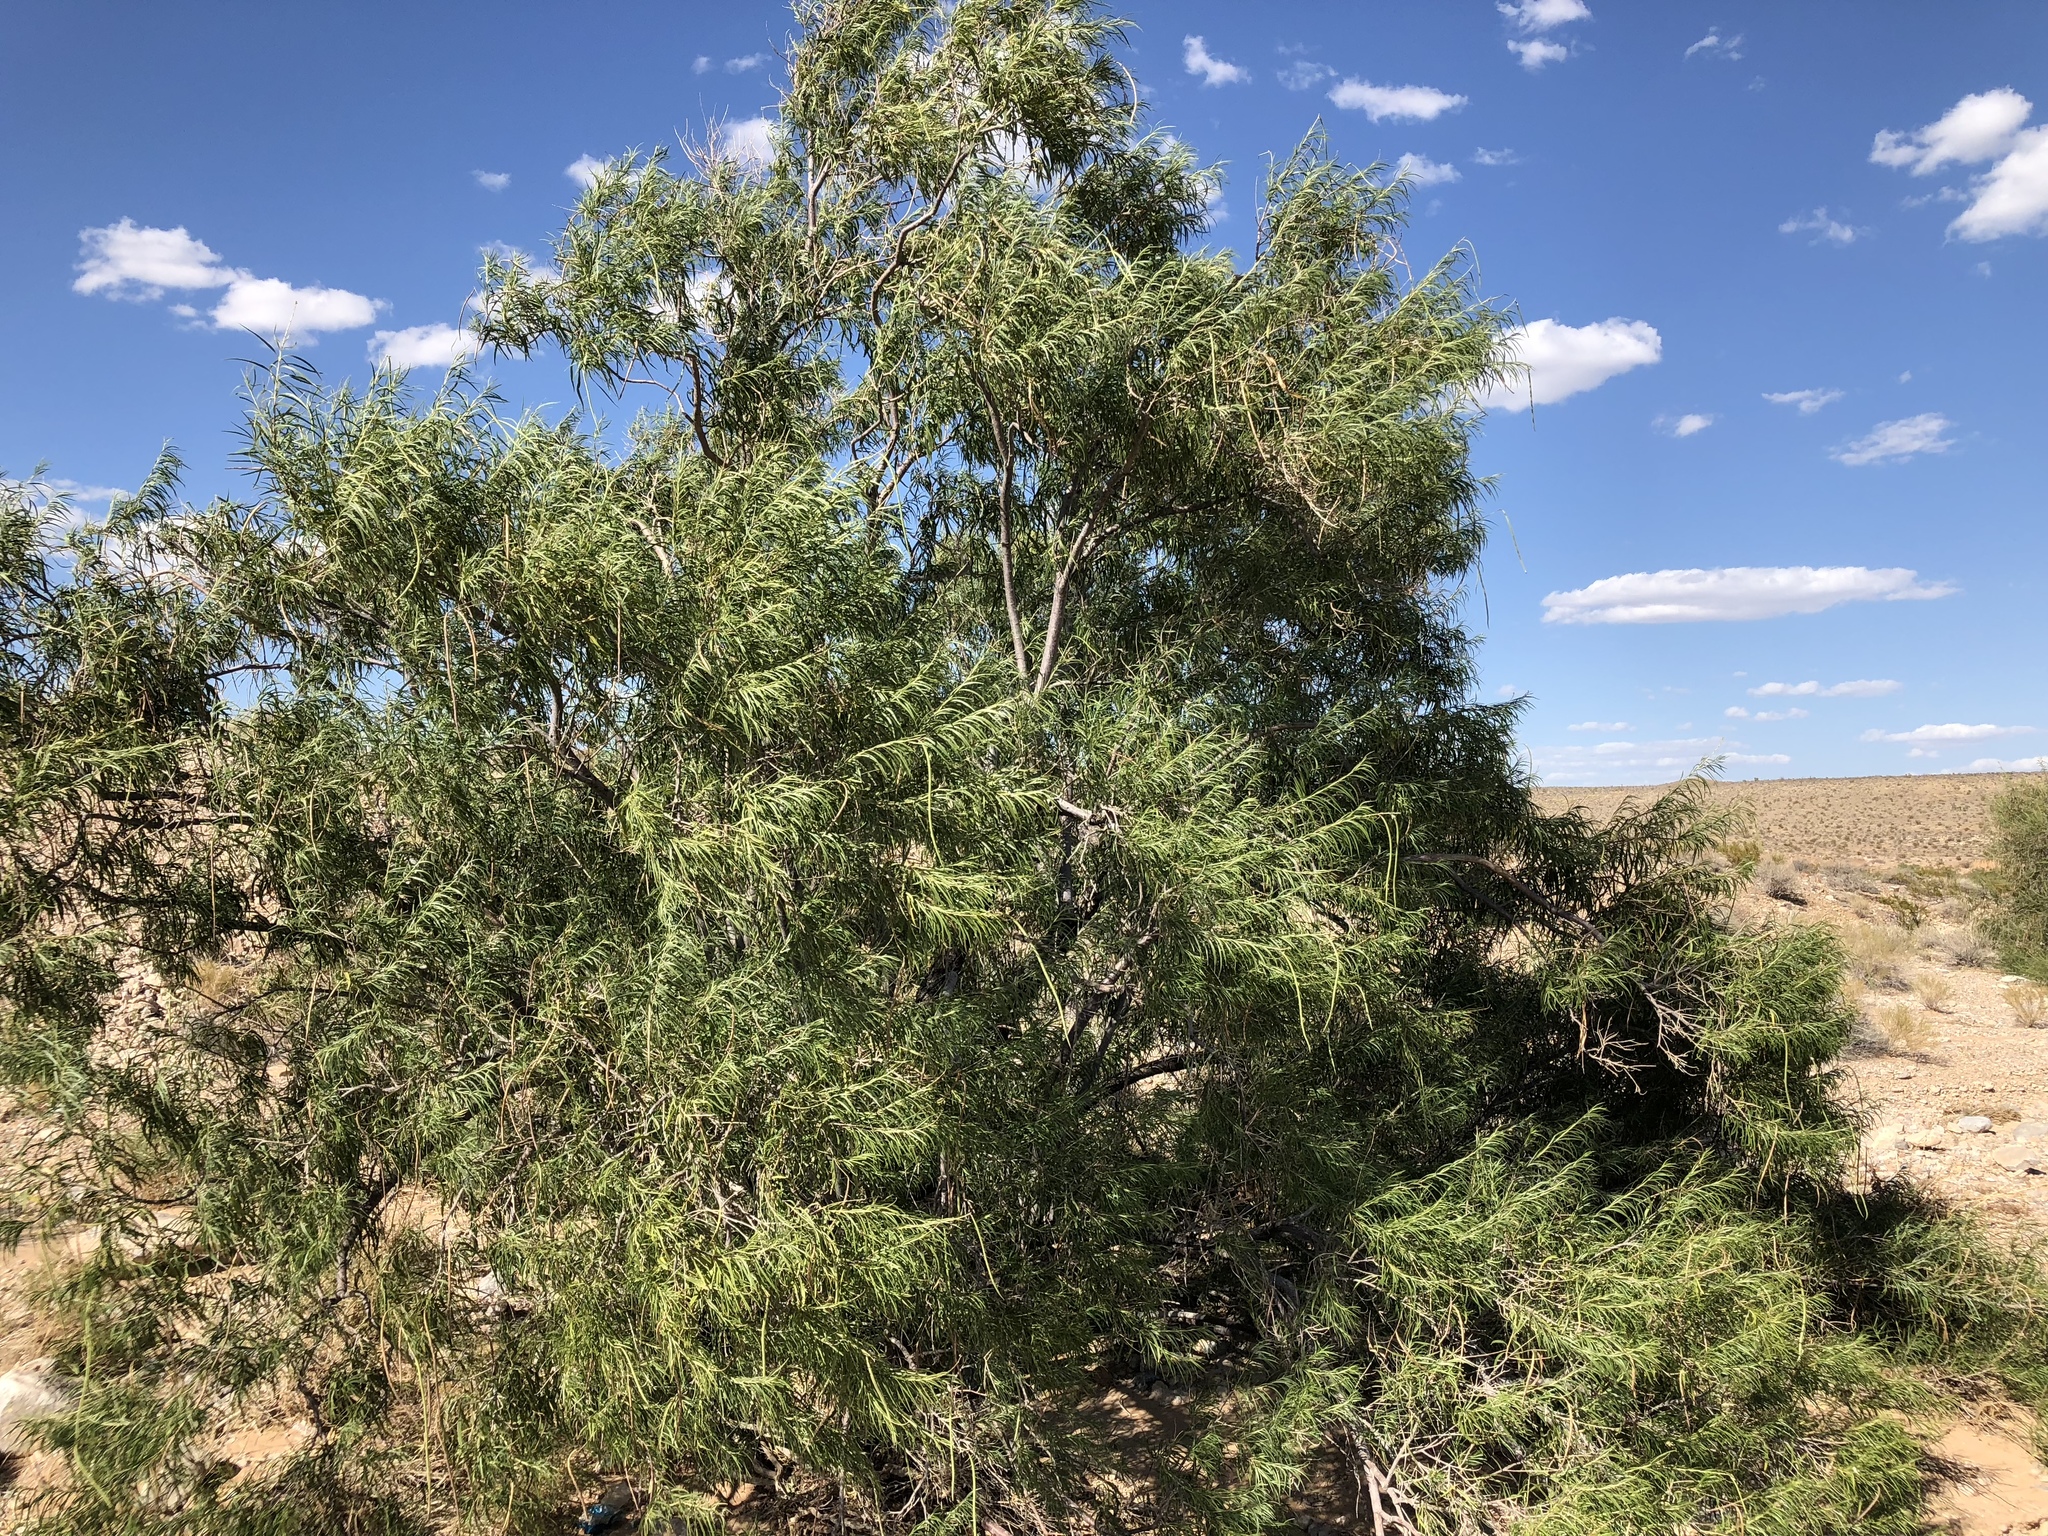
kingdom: Plantae
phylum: Tracheophyta
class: Magnoliopsida
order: Lamiales
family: Bignoniaceae
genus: Chilopsis
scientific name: Chilopsis linearis
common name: Desert-willow
